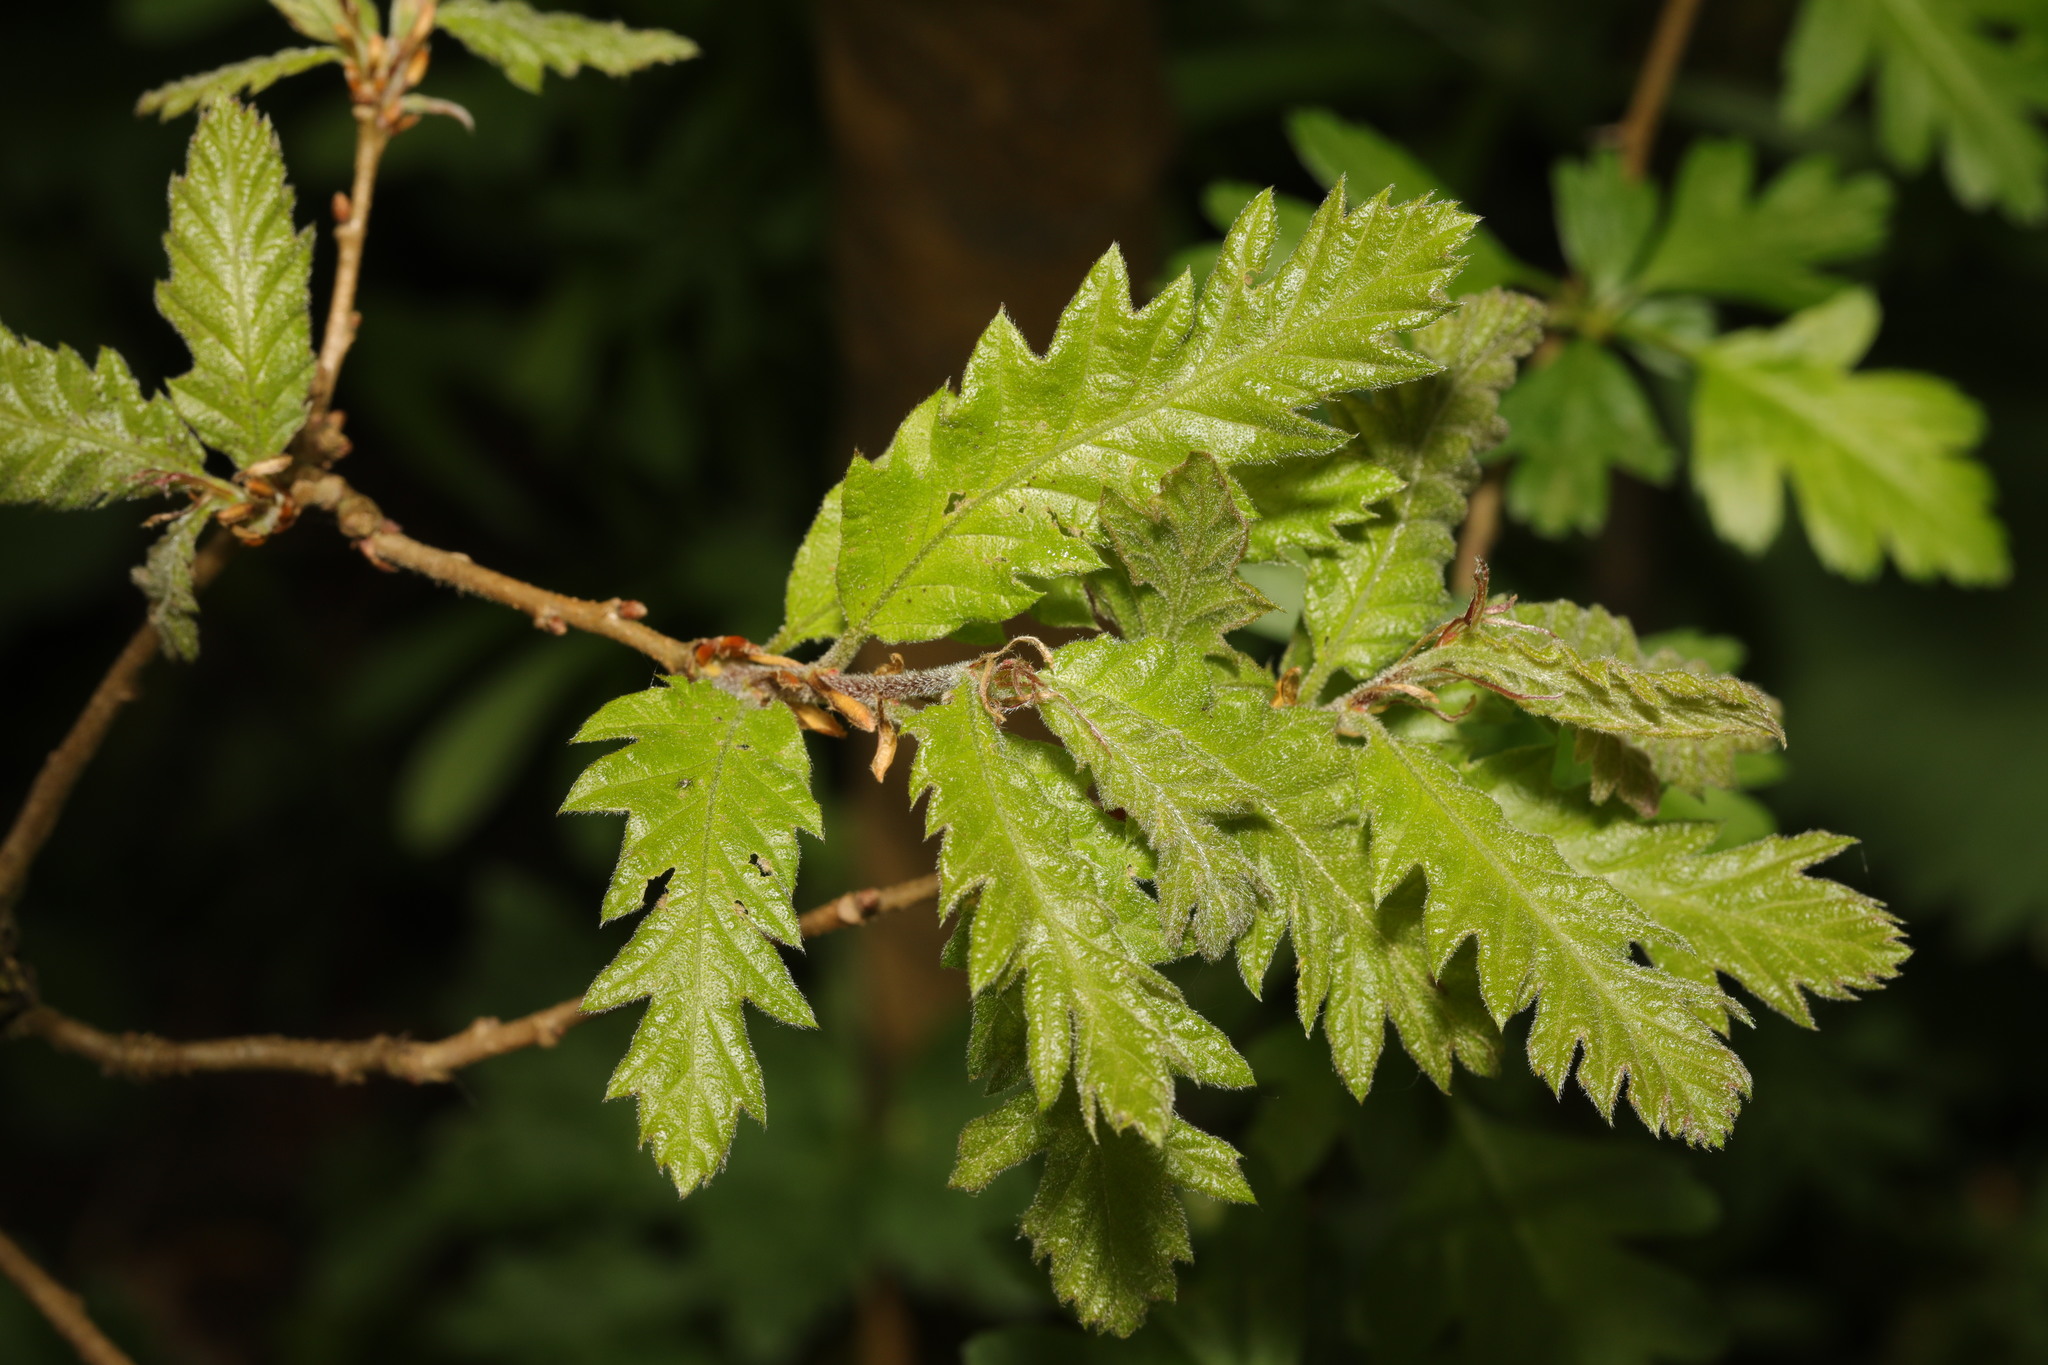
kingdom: Plantae
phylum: Tracheophyta
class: Magnoliopsida
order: Fagales
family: Fagaceae
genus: Quercus
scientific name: Quercus cerris
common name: Turkey oak
